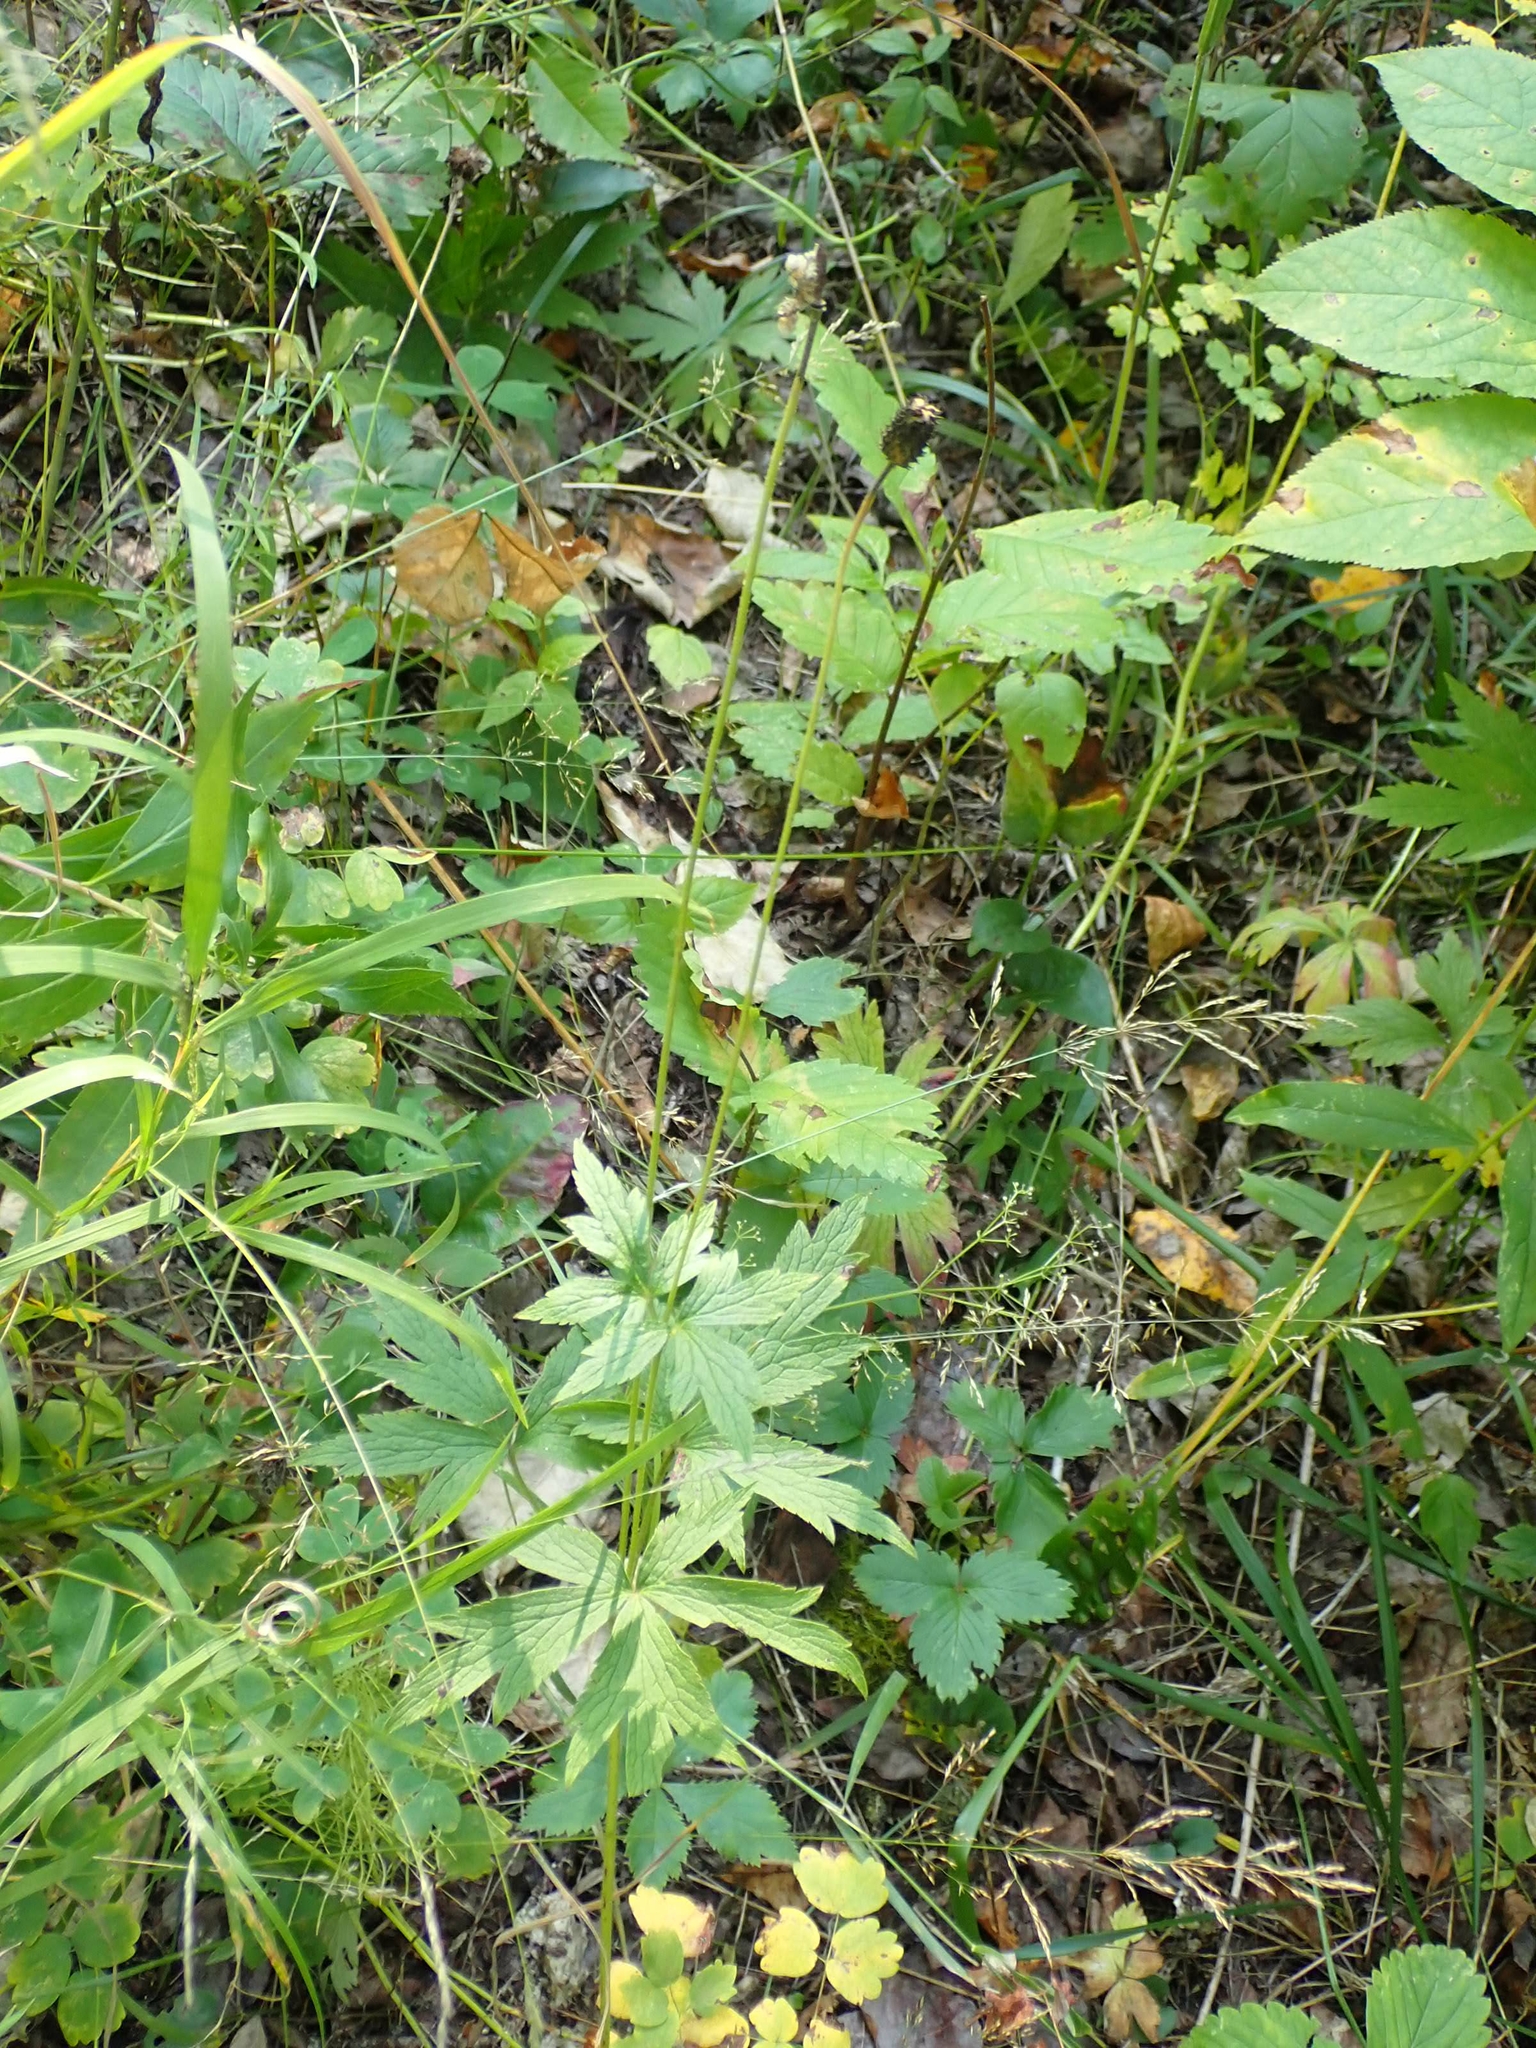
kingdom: Plantae
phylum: Tracheophyta
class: Magnoliopsida
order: Ranunculales
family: Ranunculaceae
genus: Anemone
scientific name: Anemone virginiana
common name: Tall anemone
